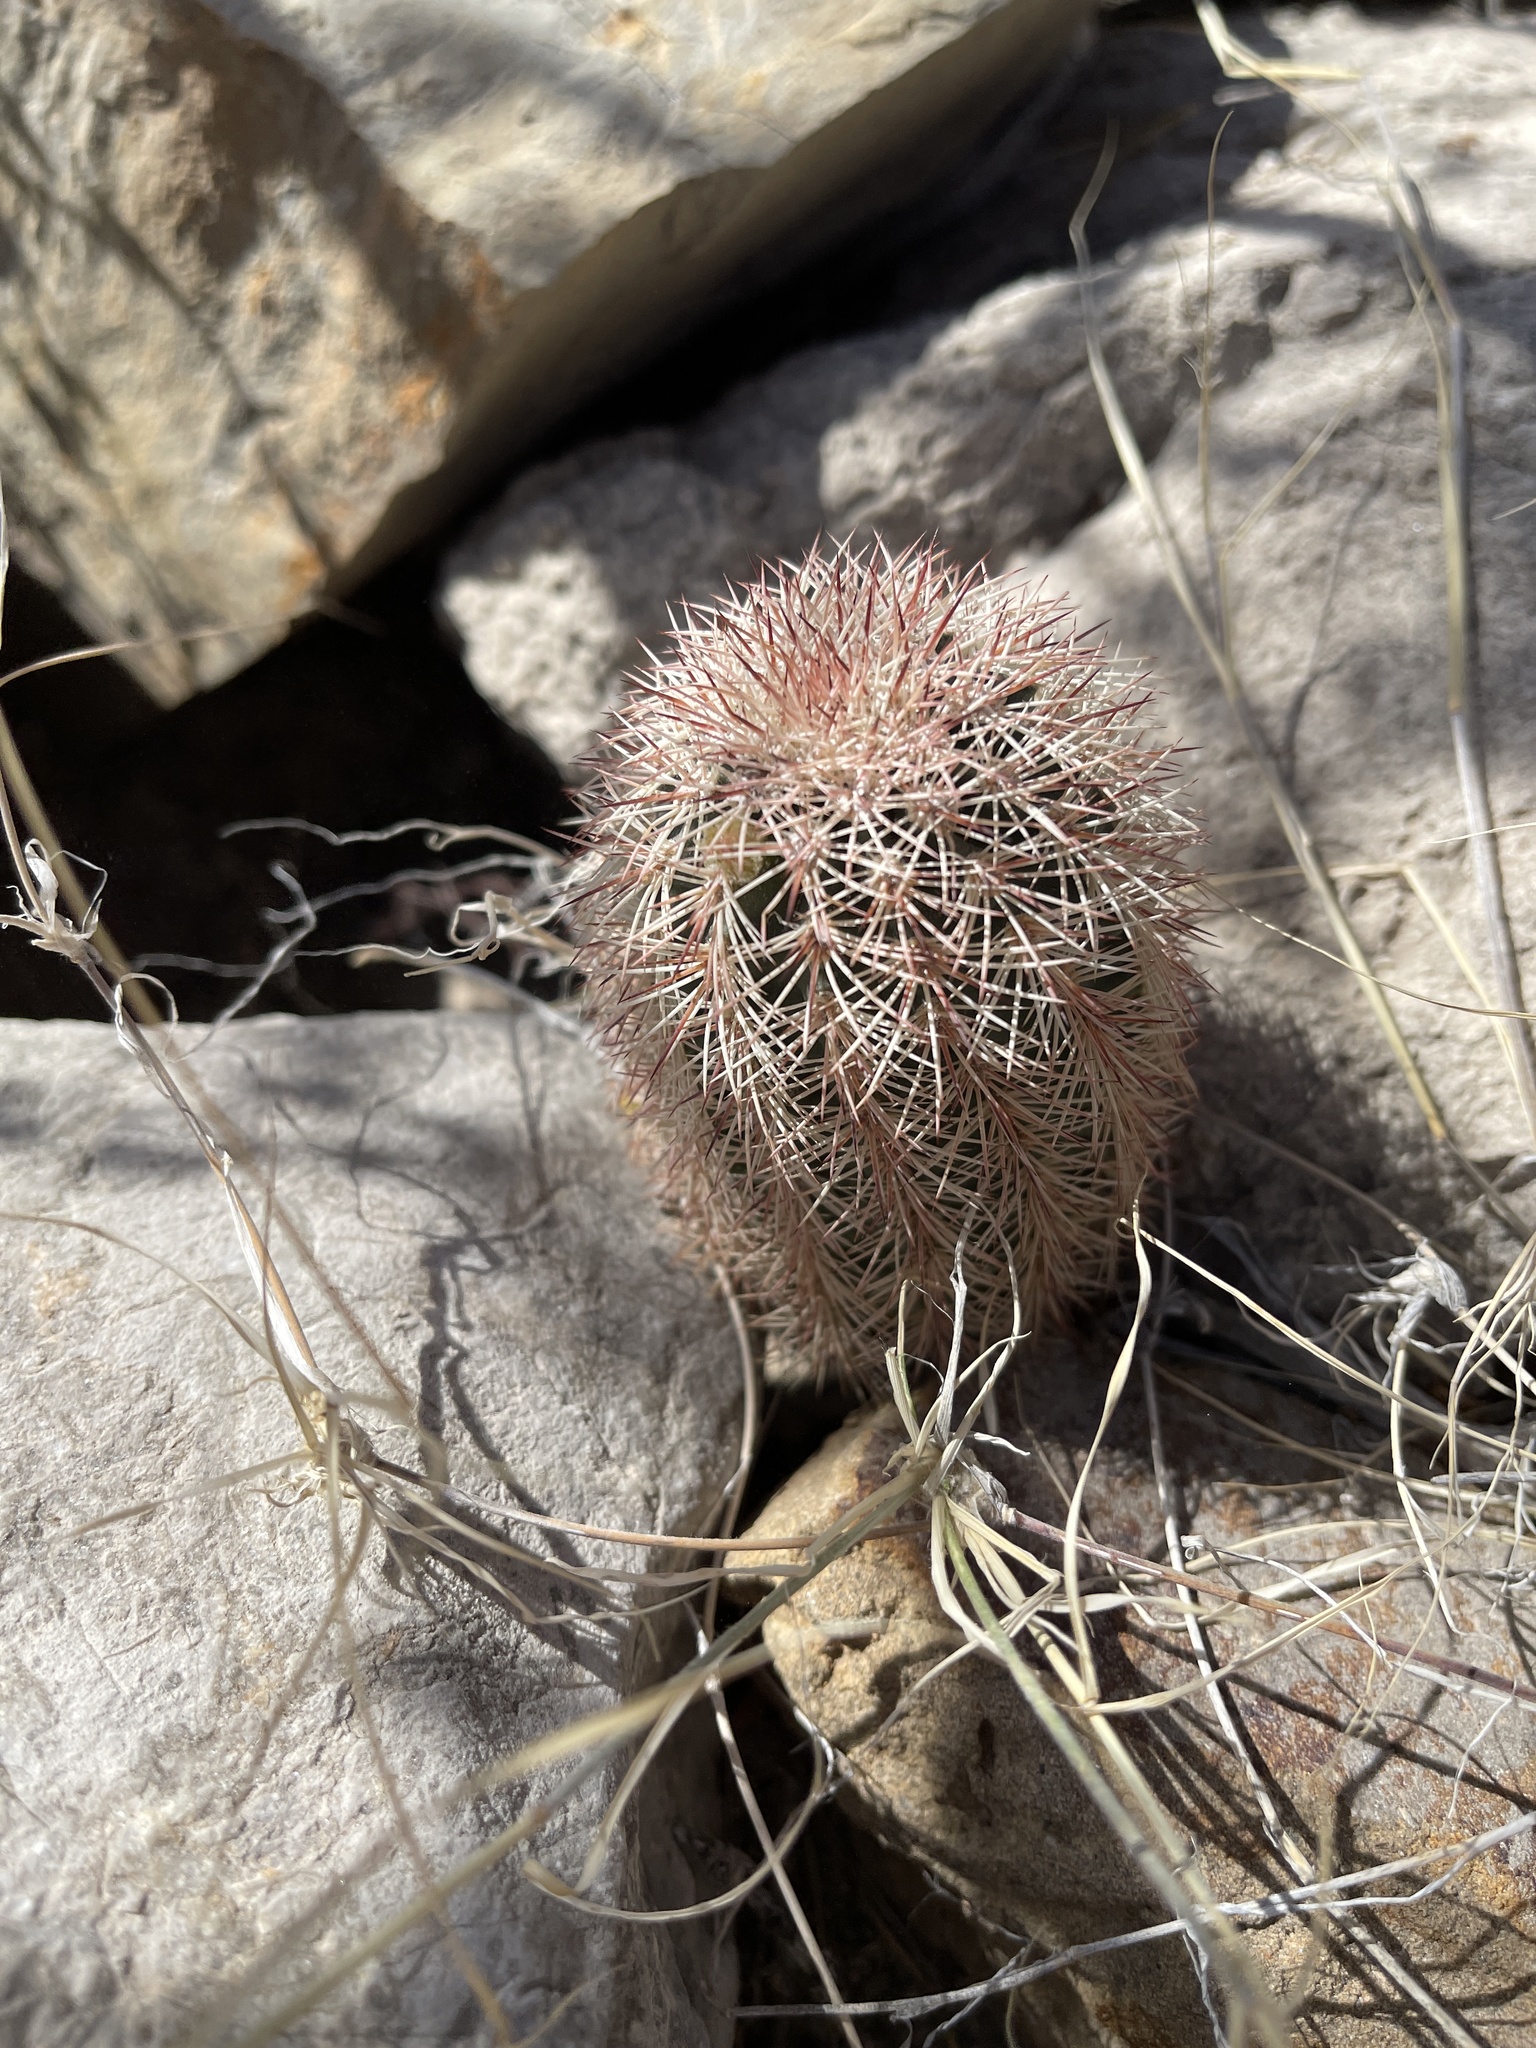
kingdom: Plantae
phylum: Tracheophyta
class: Magnoliopsida
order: Caryophyllales
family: Cactaceae
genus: Echinocereus
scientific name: Echinocereus dasyacanthus
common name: Spiny hedgehog cactus
